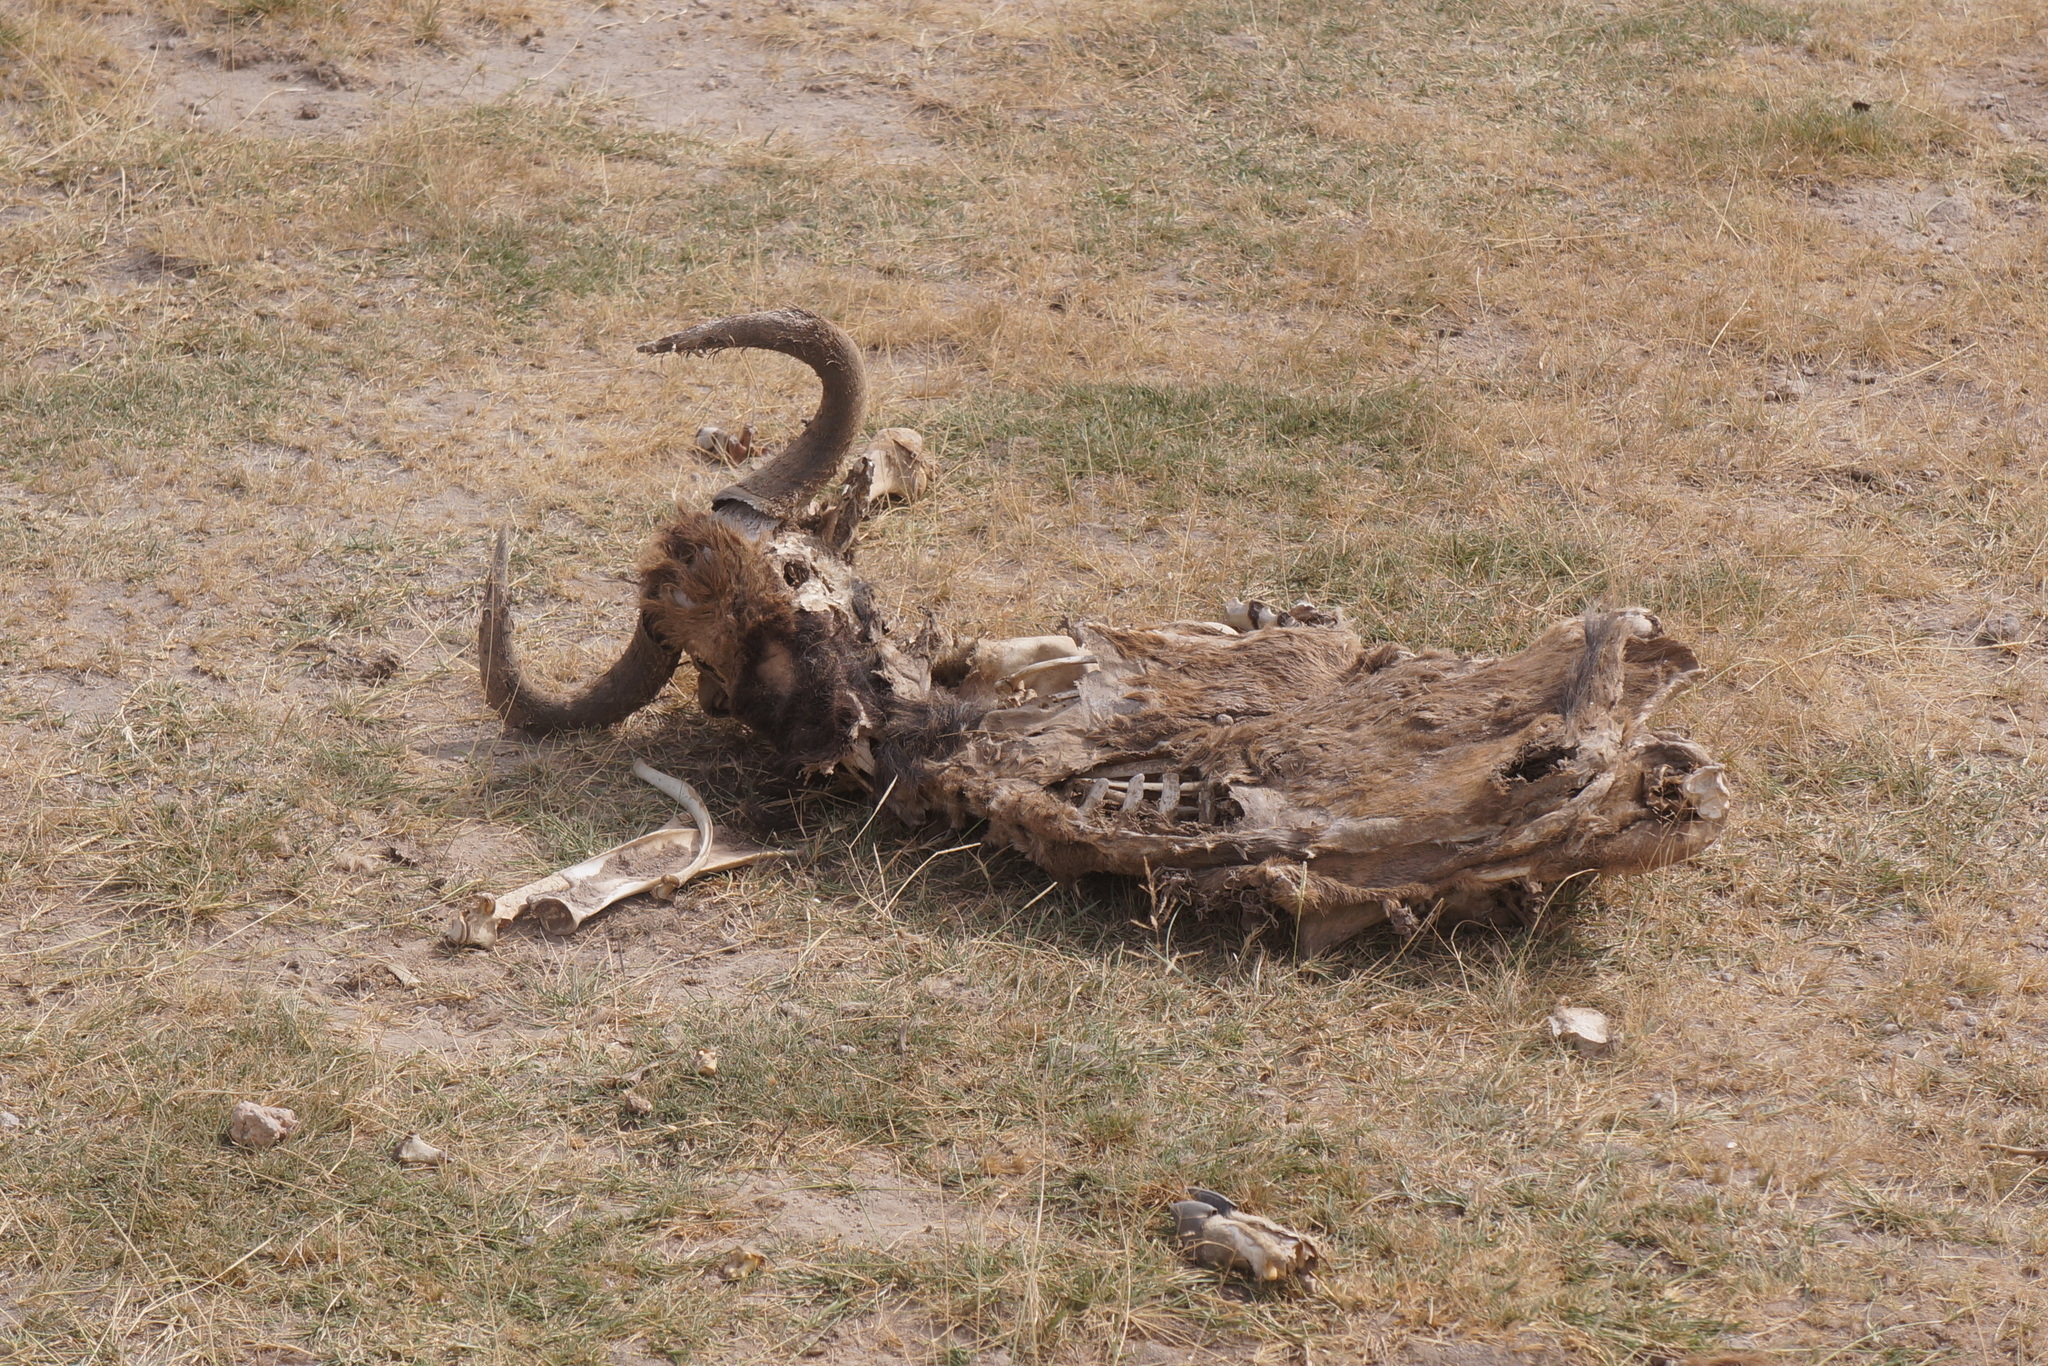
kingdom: Animalia
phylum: Chordata
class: Mammalia
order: Artiodactyla
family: Bovidae
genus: Connochaetes
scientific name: Connochaetes taurinus
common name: Blue wildebeest
